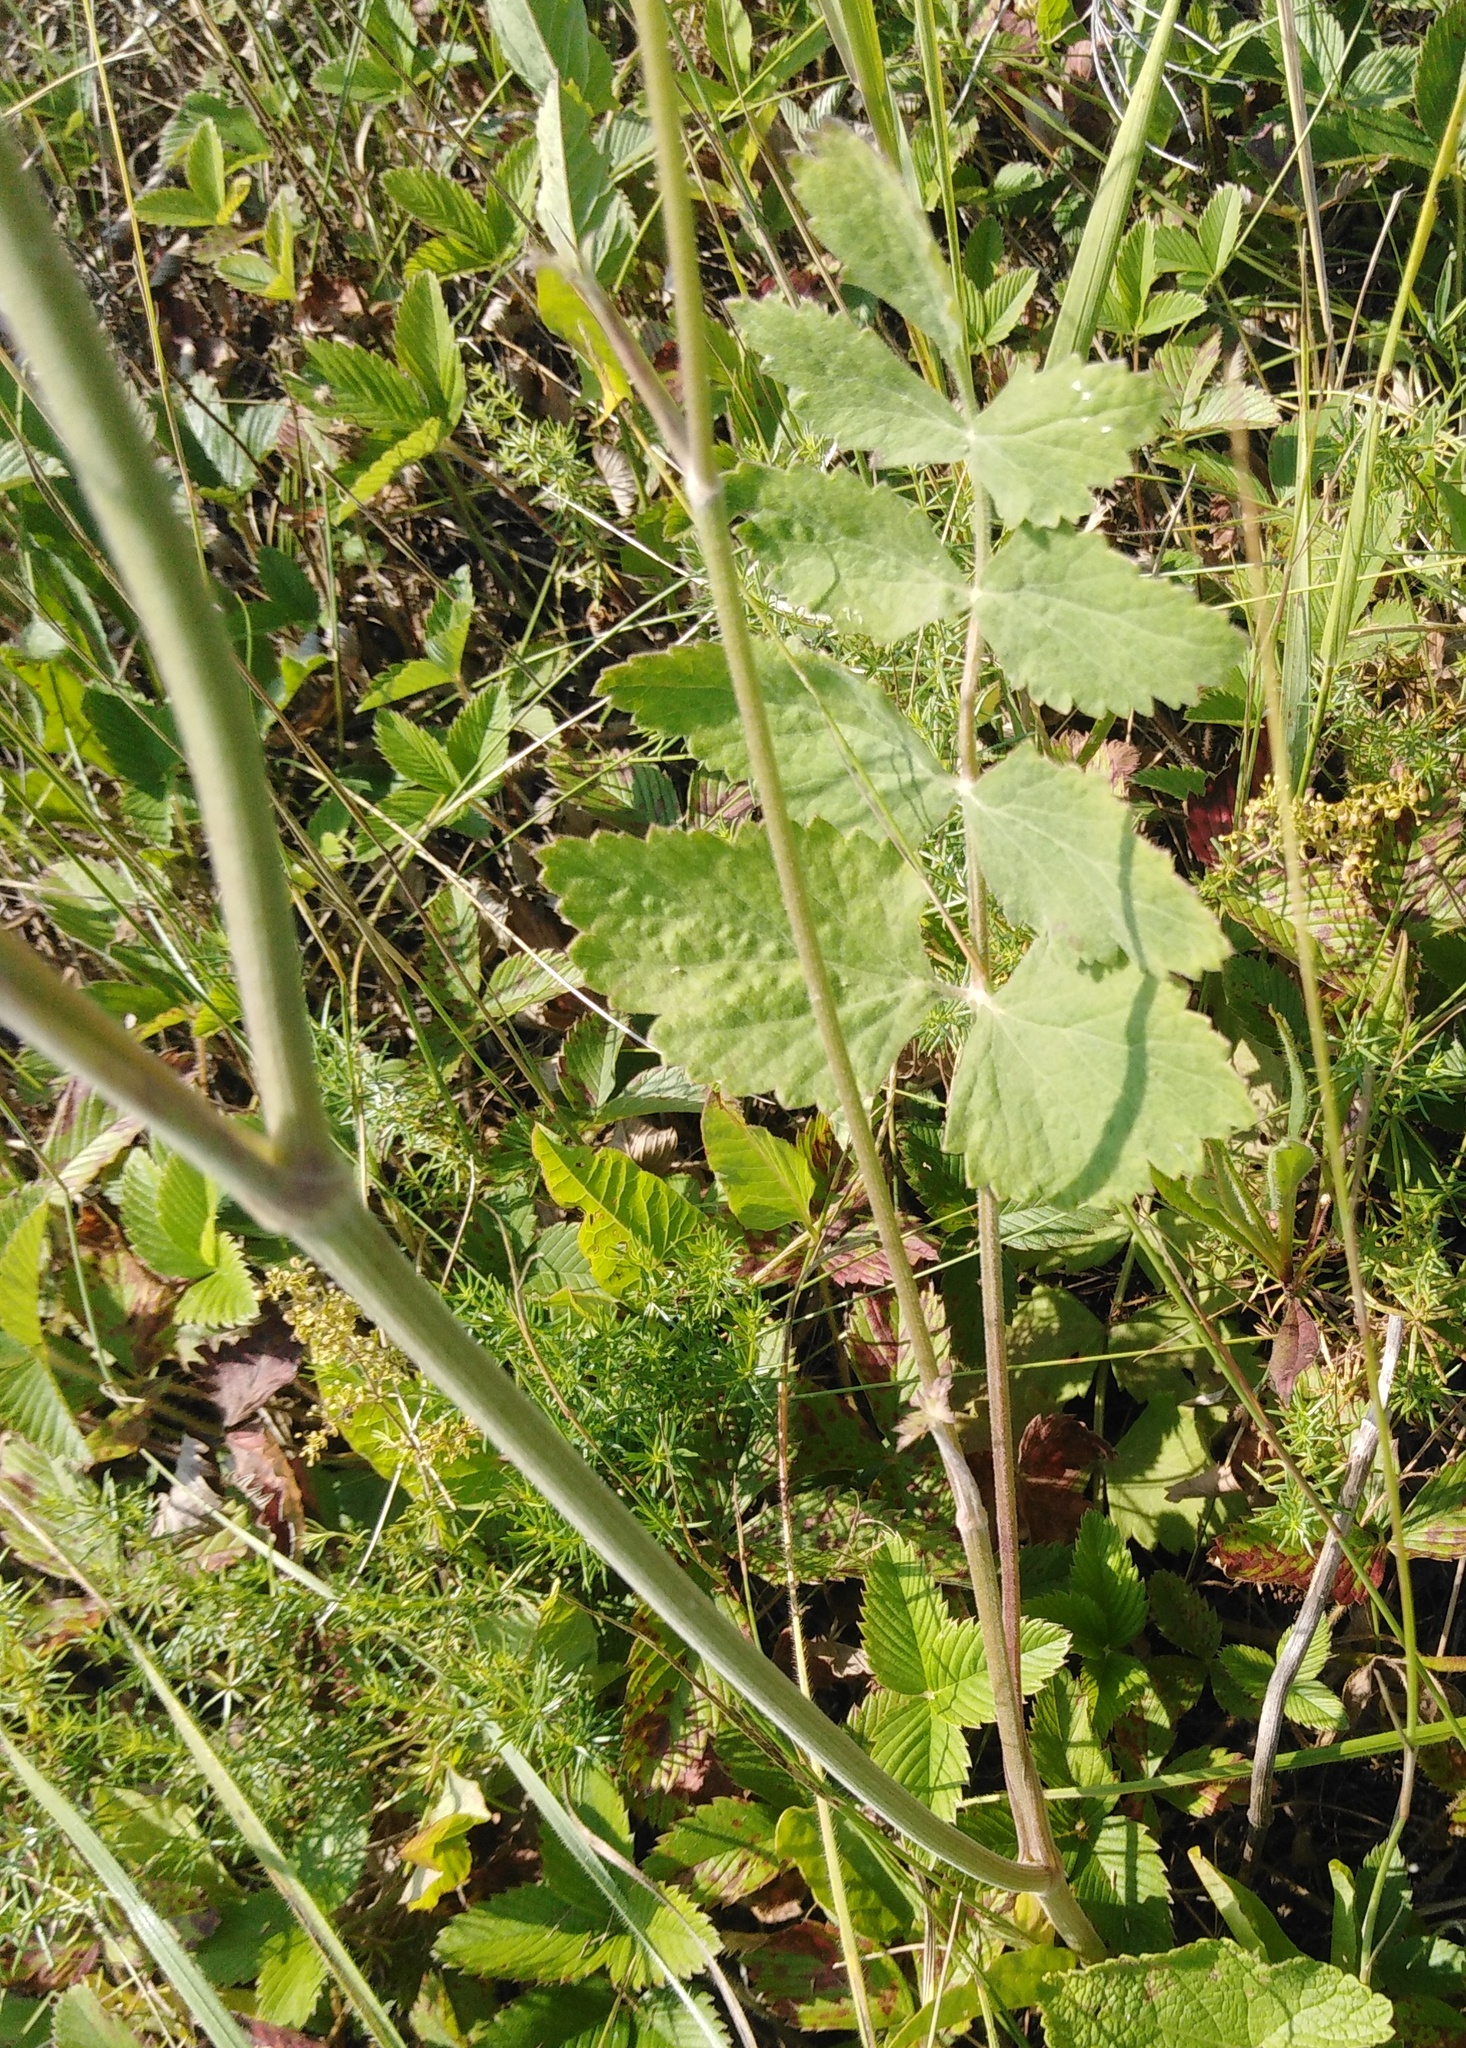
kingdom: Plantae
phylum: Tracheophyta
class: Magnoliopsida
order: Apiales
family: Apiaceae
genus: Pimpinella
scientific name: Pimpinella saxifraga
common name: Burnet-saxifrage
